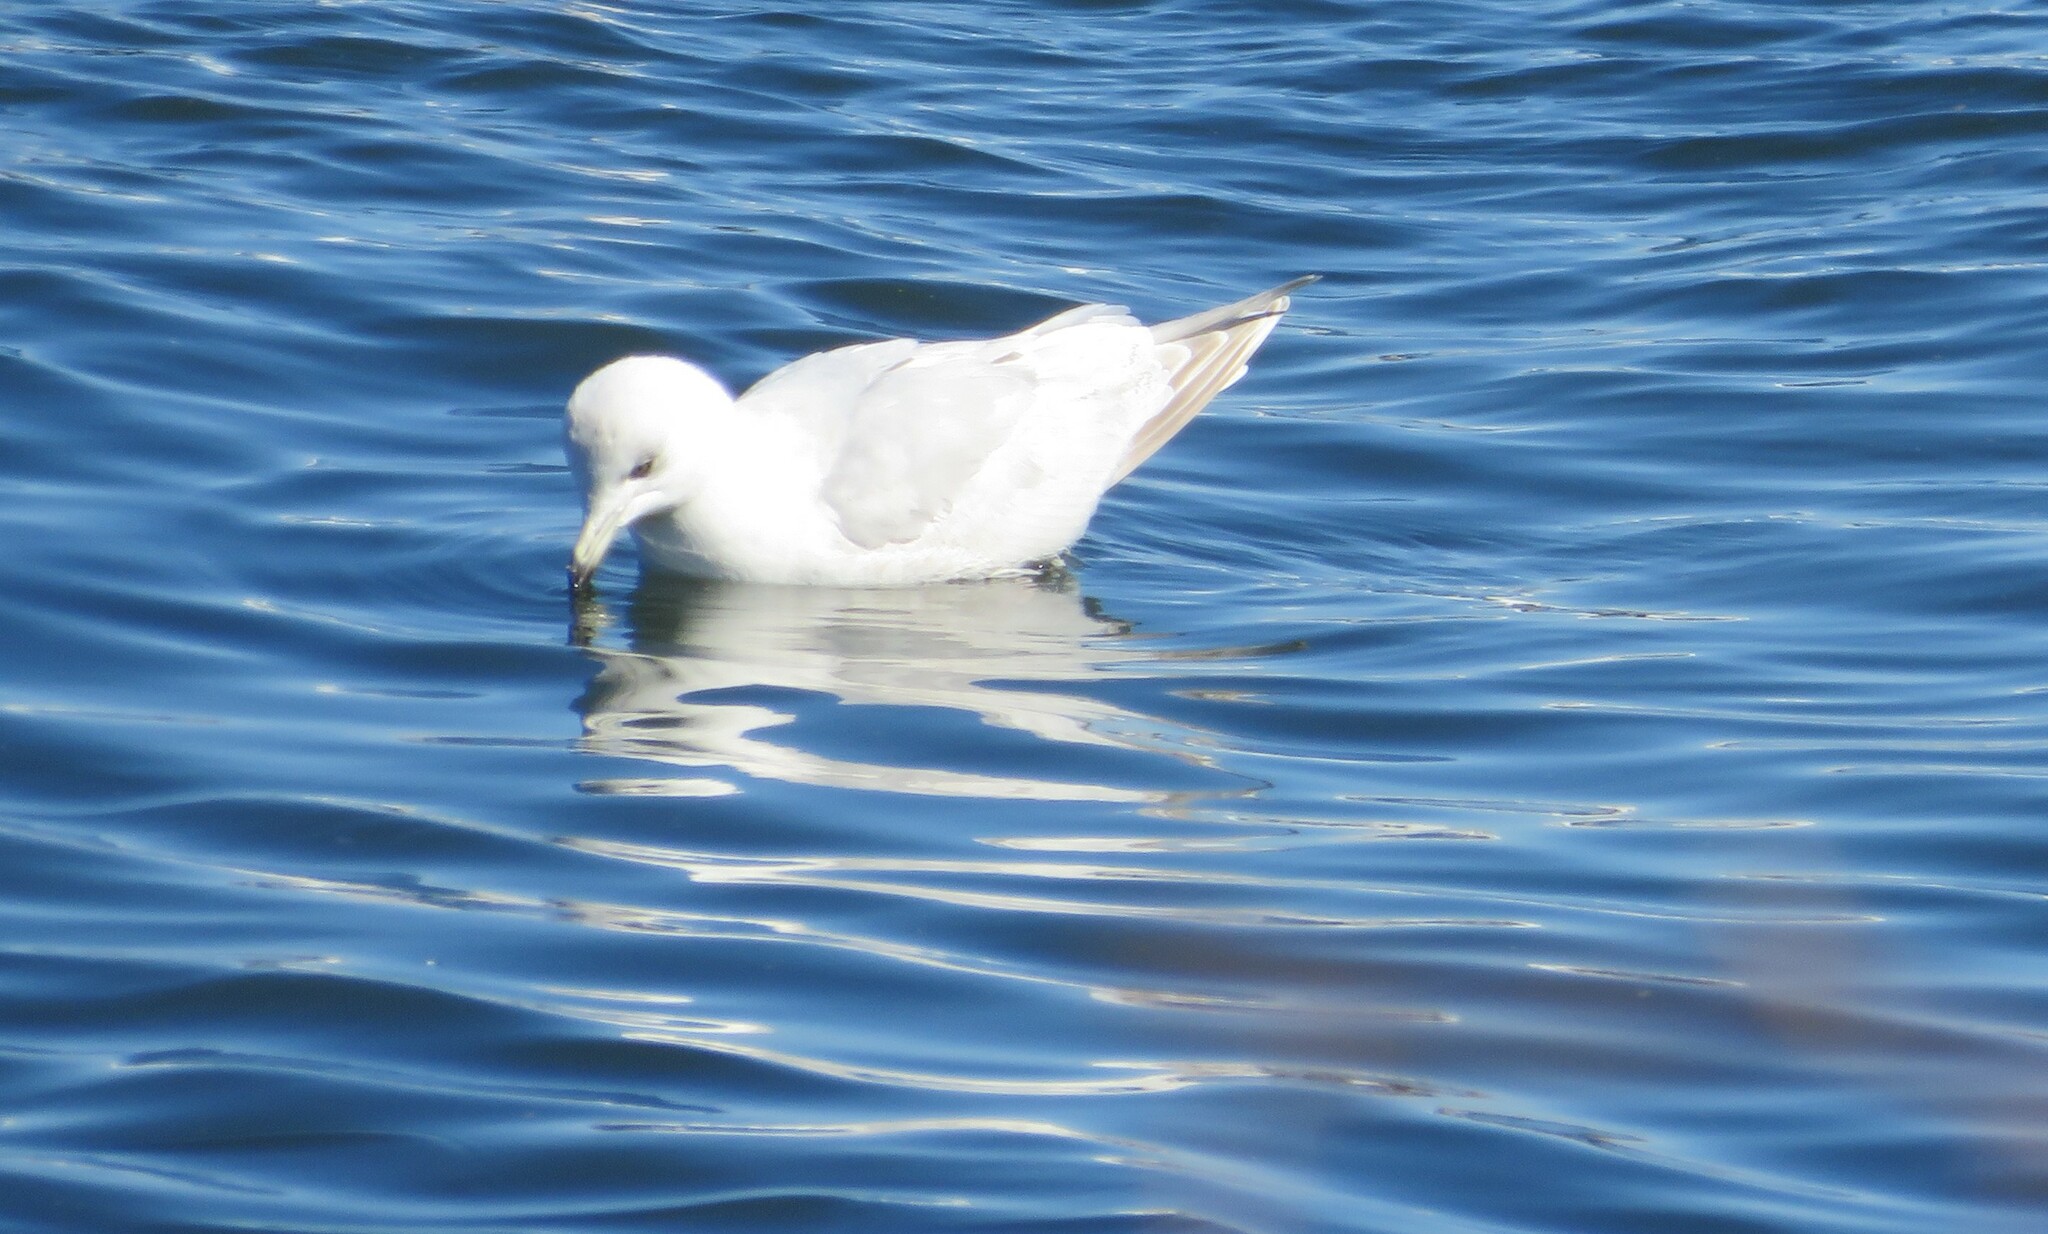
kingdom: Animalia
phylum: Chordata
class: Aves
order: Charadriiformes
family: Laridae
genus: Larus
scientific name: Larus glaucoides
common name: Iceland gull
